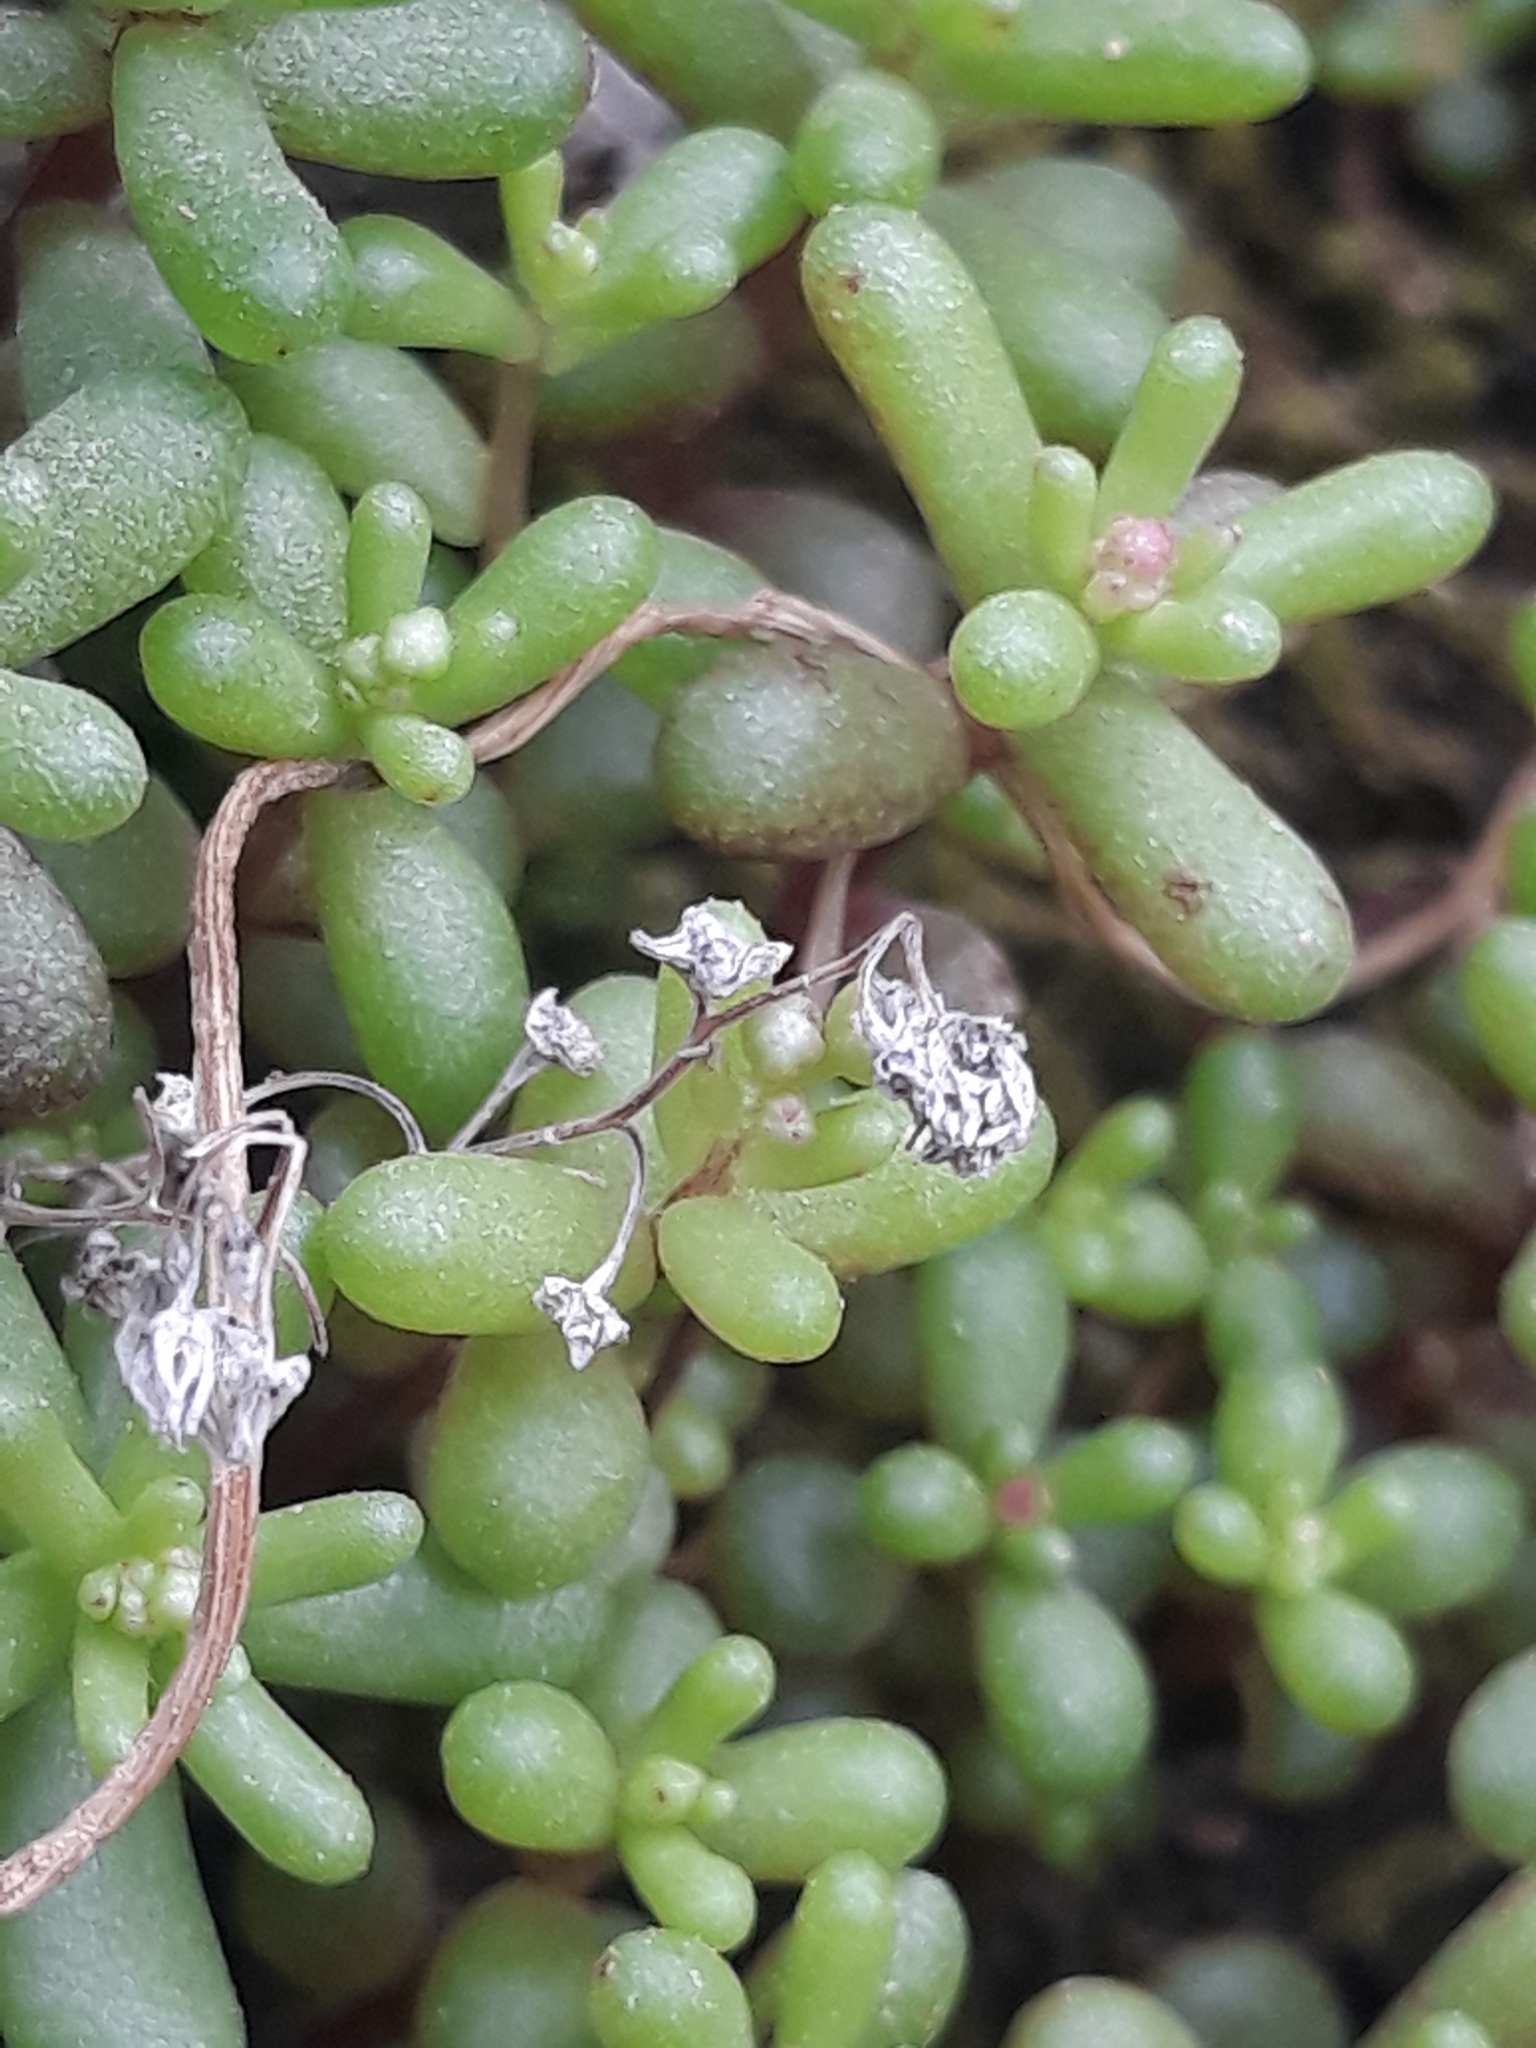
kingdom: Plantae
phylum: Tracheophyta
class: Magnoliopsida
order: Saxifragales
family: Crassulaceae
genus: Sedum
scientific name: Sedum caeruleum
